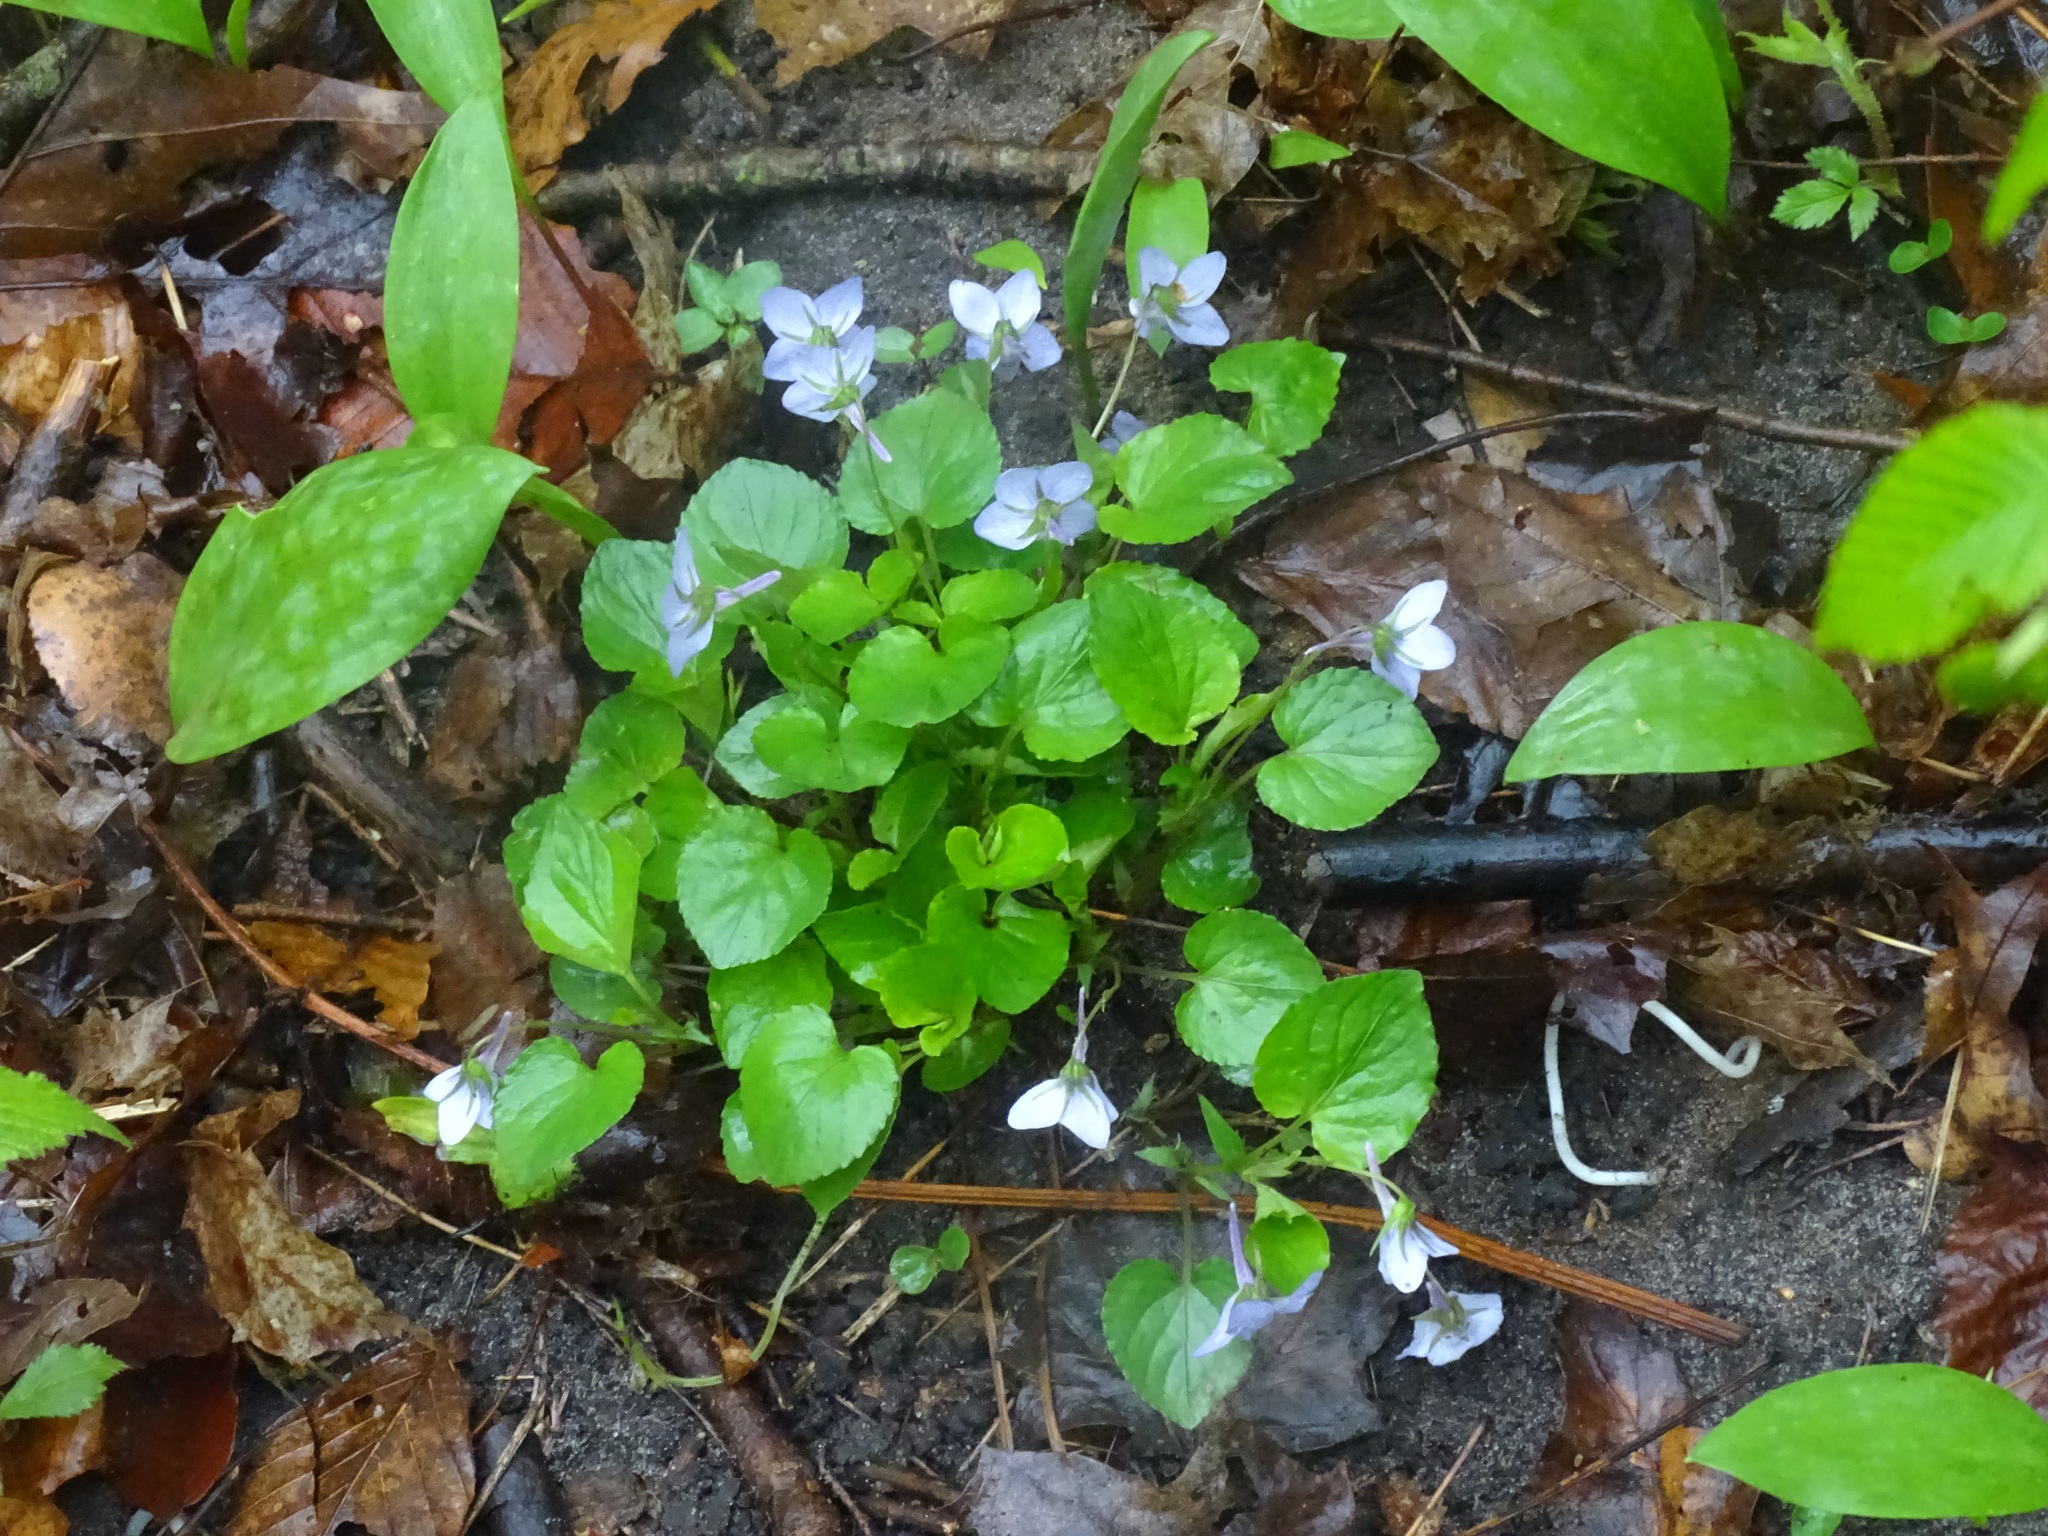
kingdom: Plantae
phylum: Tracheophyta
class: Magnoliopsida
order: Malpighiales
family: Violaceae
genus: Viola
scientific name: Viola rostrata
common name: Long-spur violet
